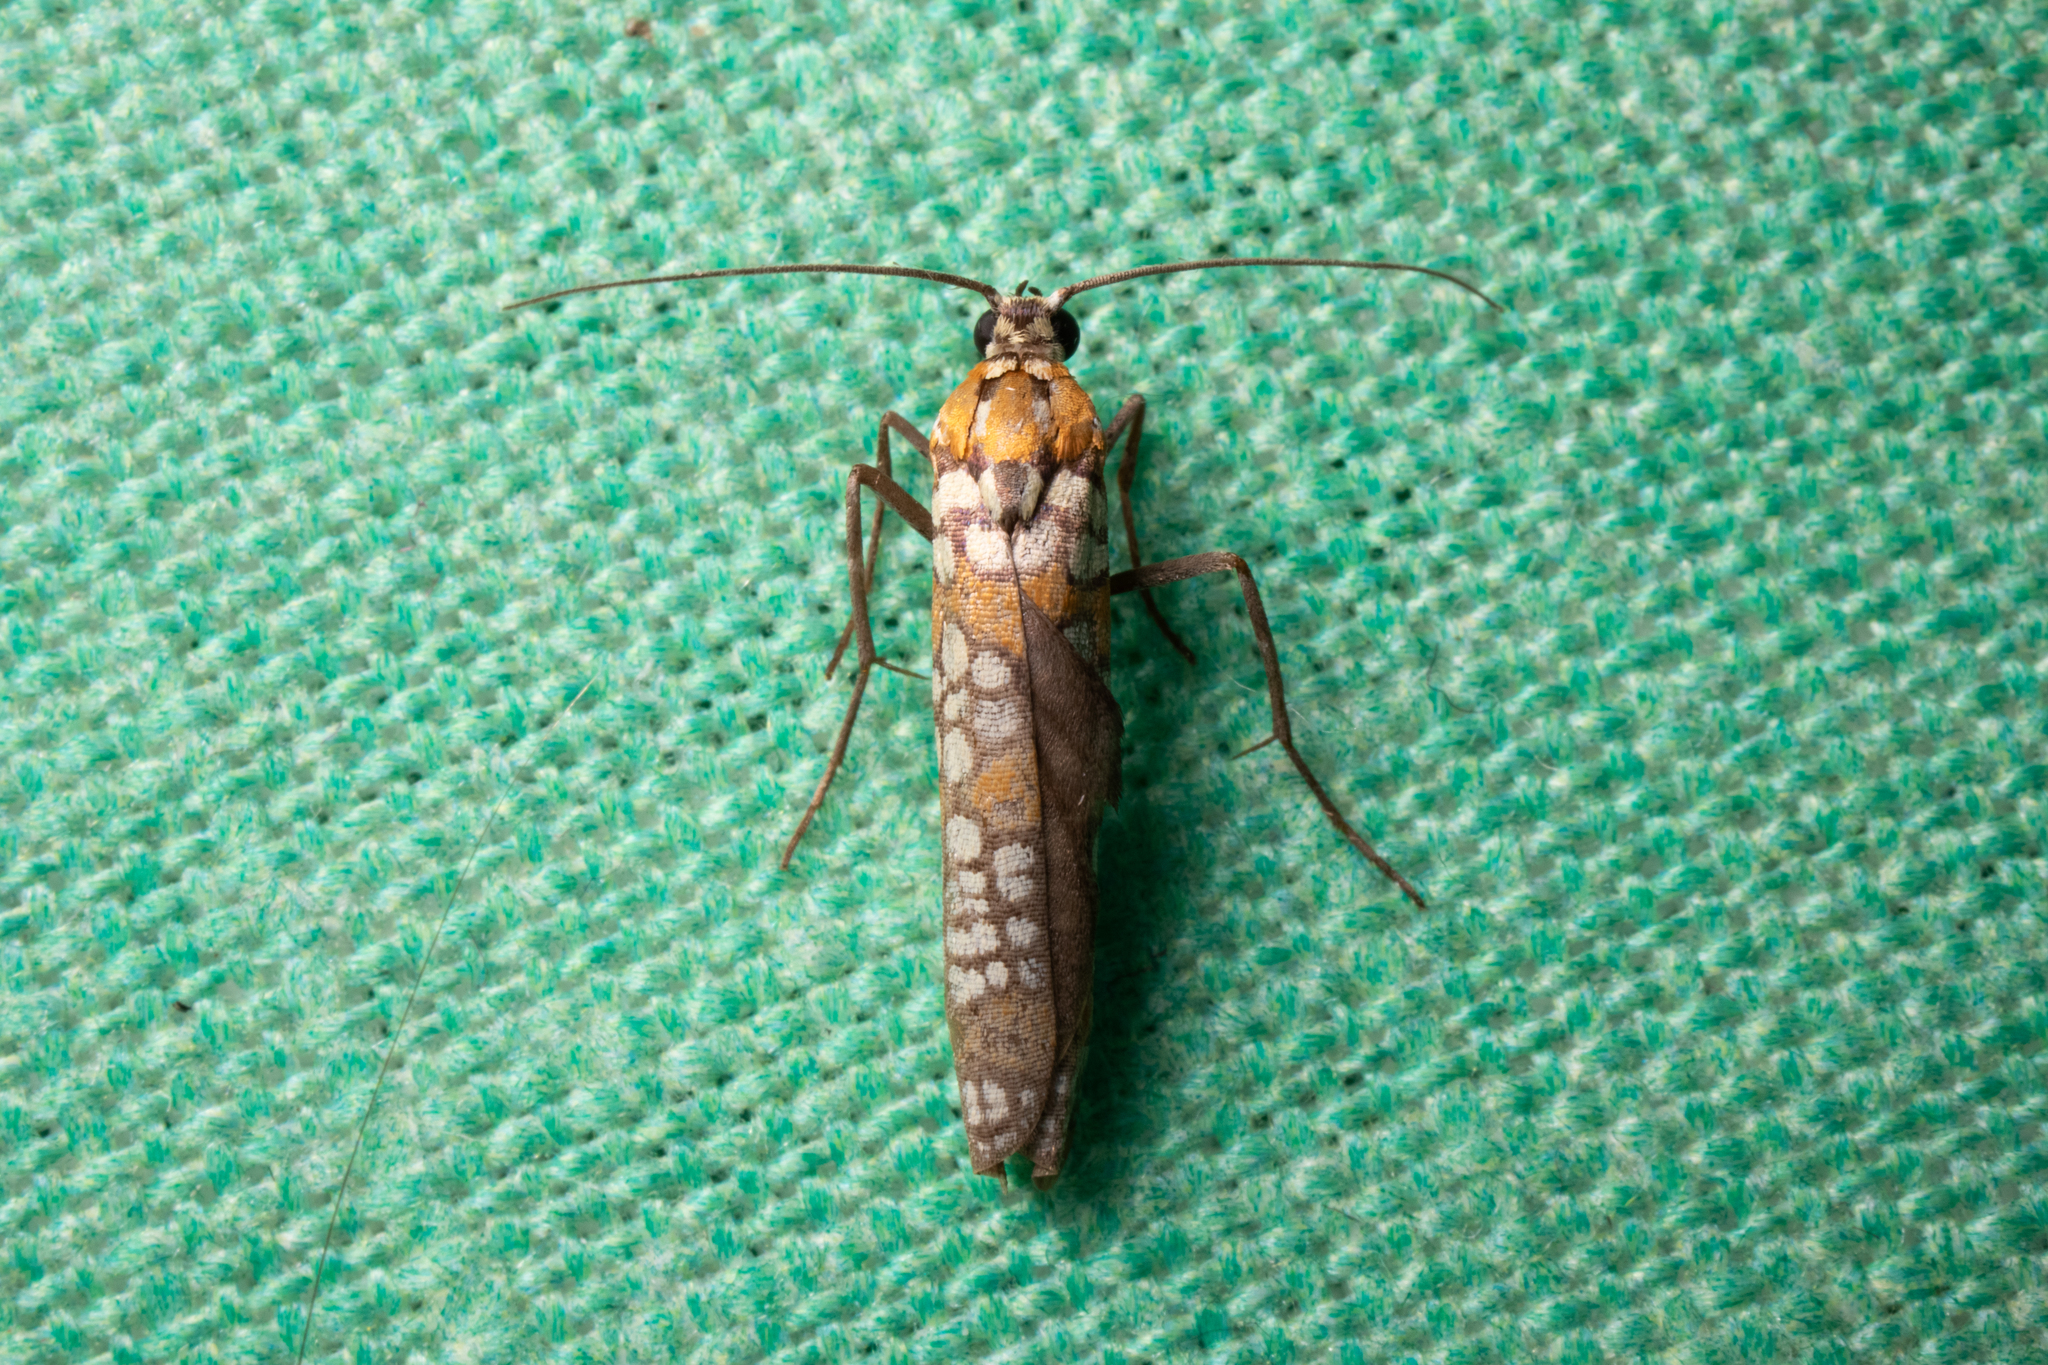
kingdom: Animalia
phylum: Arthropoda
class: Insecta
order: Lepidoptera
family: Attevidae
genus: Atteva
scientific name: Atteva punctella
